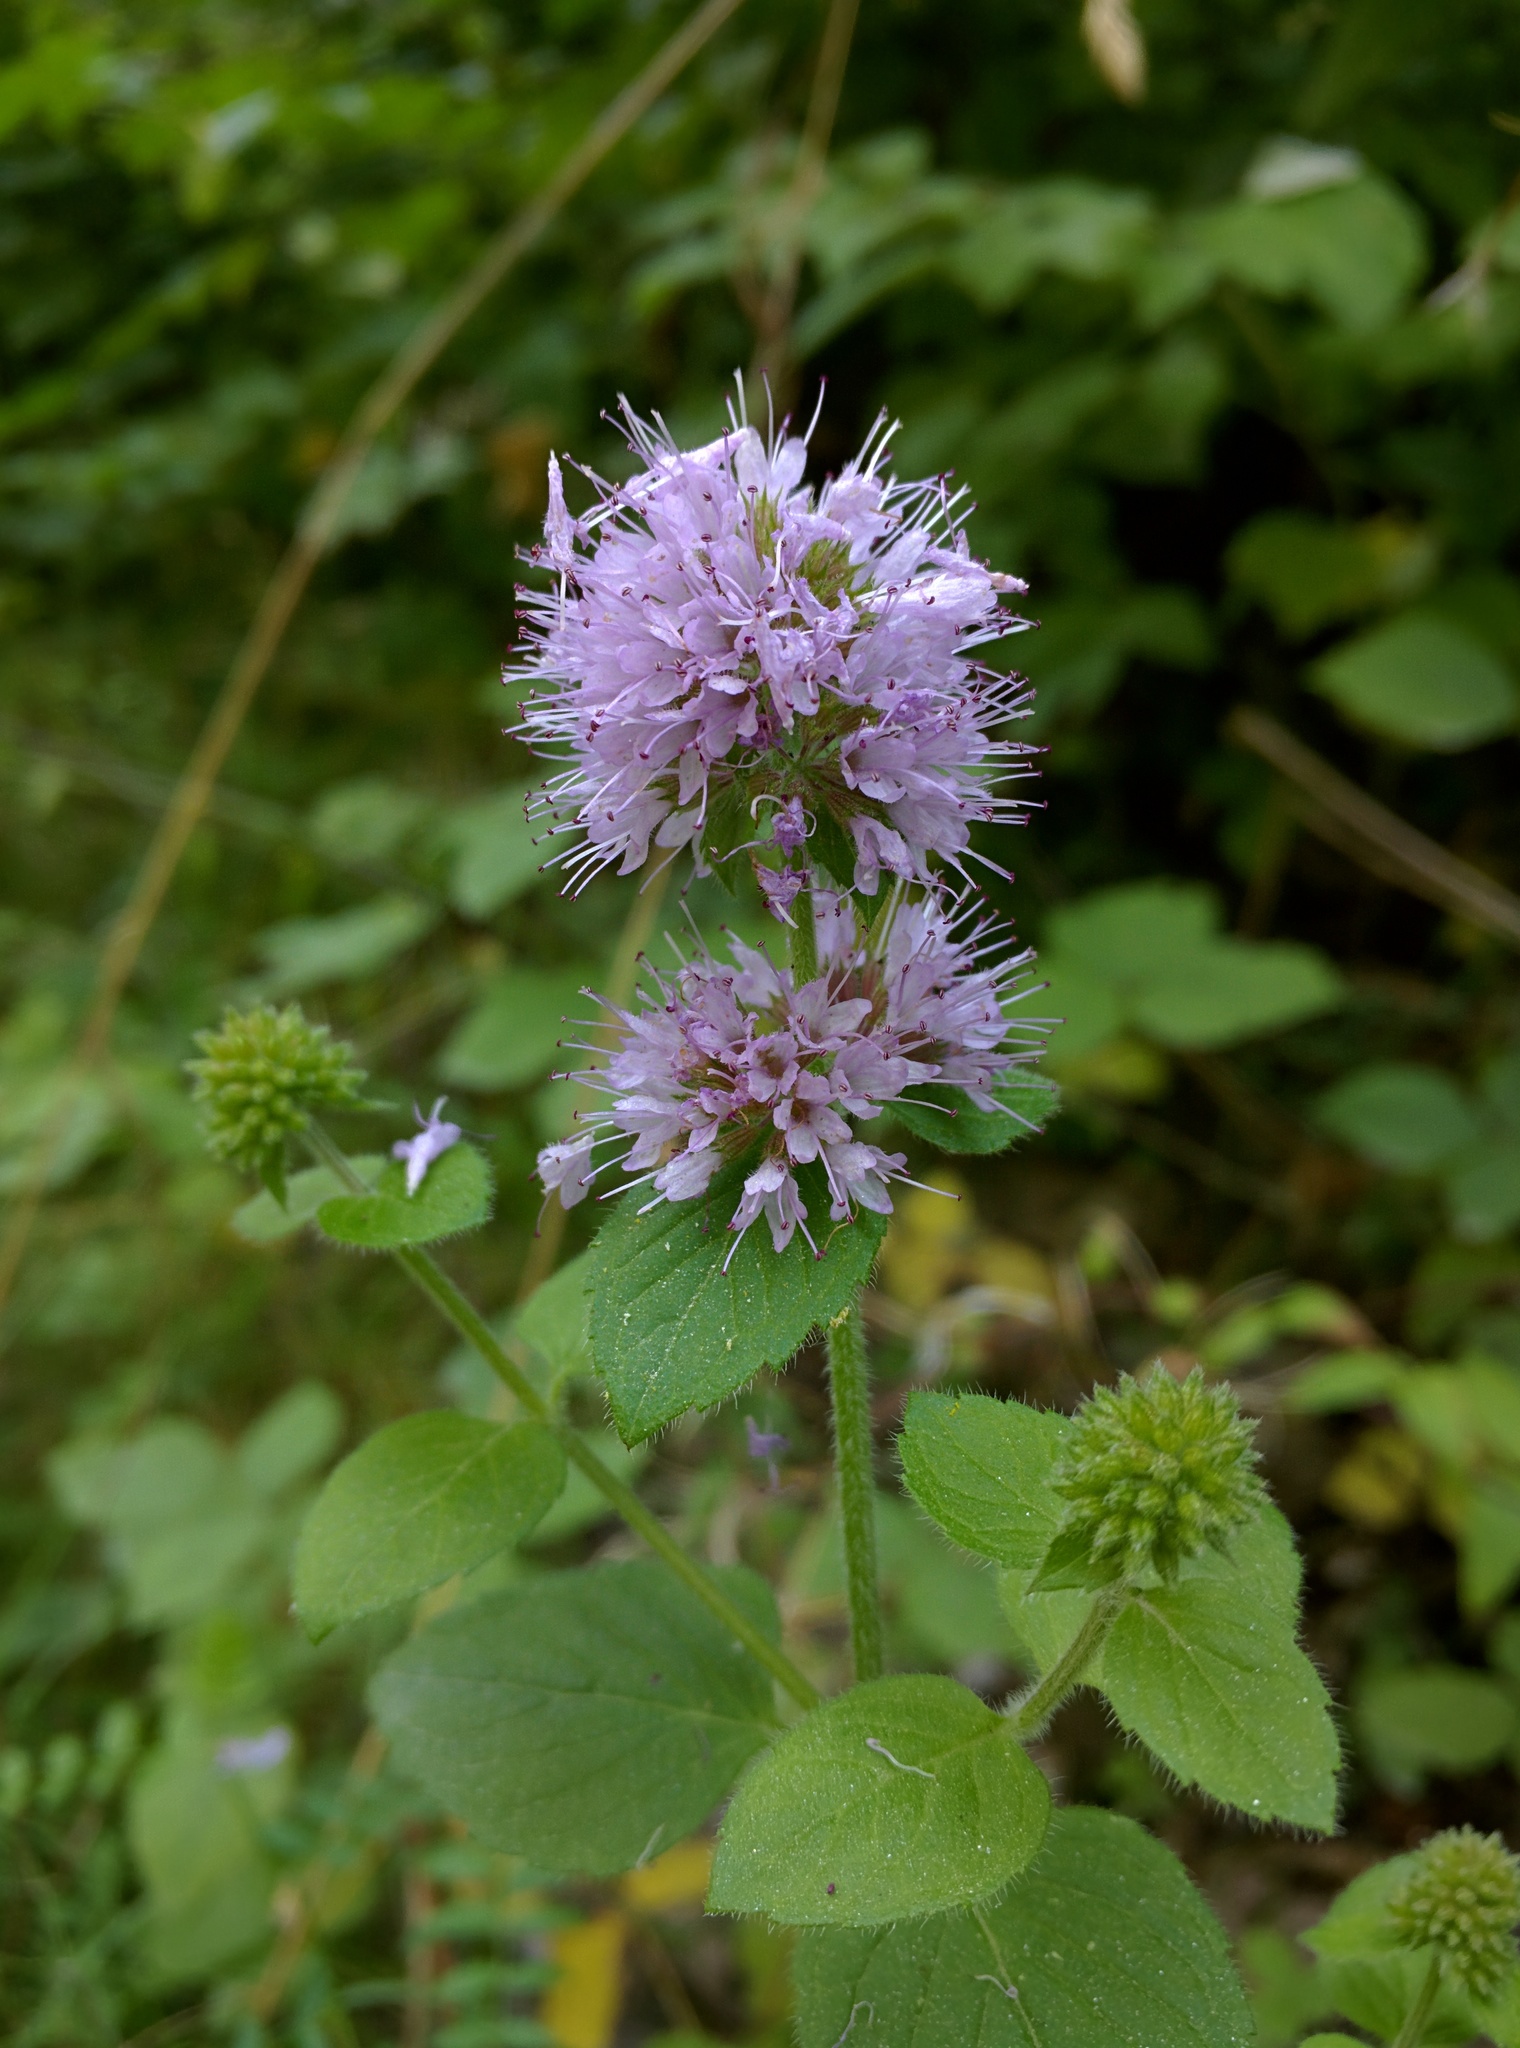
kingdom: Plantae
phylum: Tracheophyta
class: Magnoliopsida
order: Lamiales
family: Lamiaceae
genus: Mentha
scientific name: Mentha aquatica
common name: Water mint
